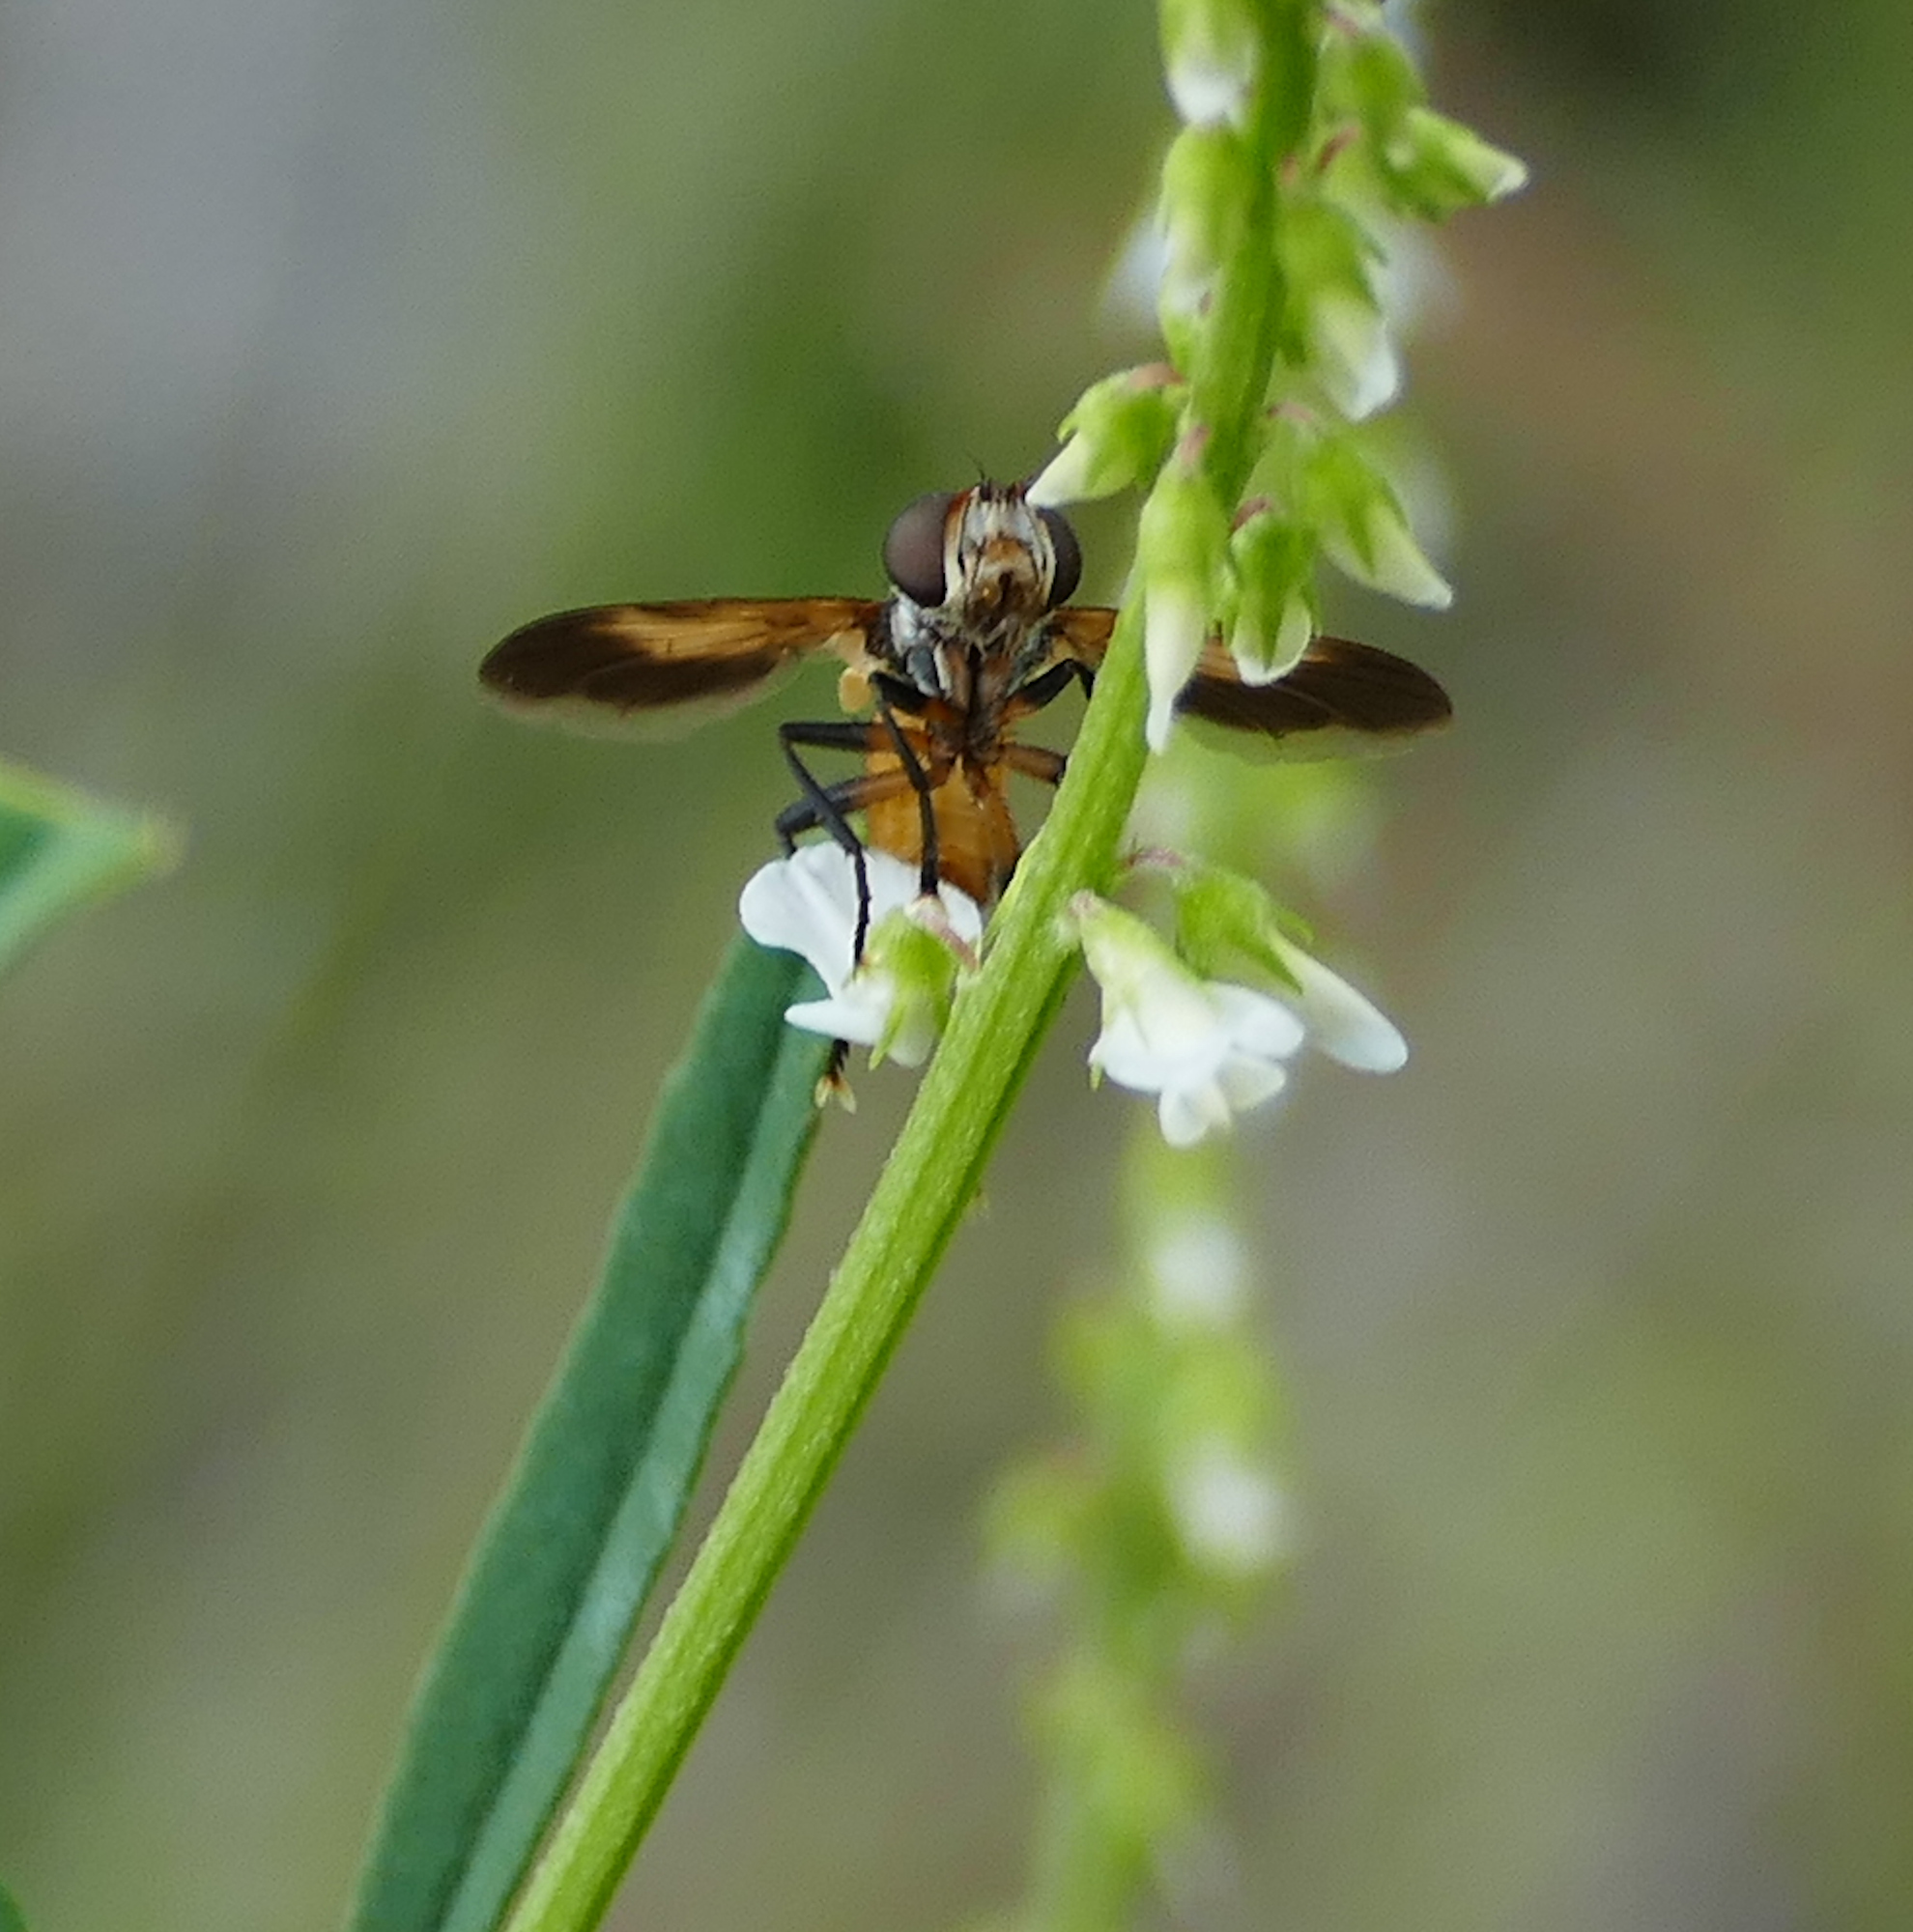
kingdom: Animalia
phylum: Arthropoda
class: Insecta
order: Diptera
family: Tachinidae
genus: Trichopoda
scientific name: Trichopoda pennipes
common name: Tachinid fly
